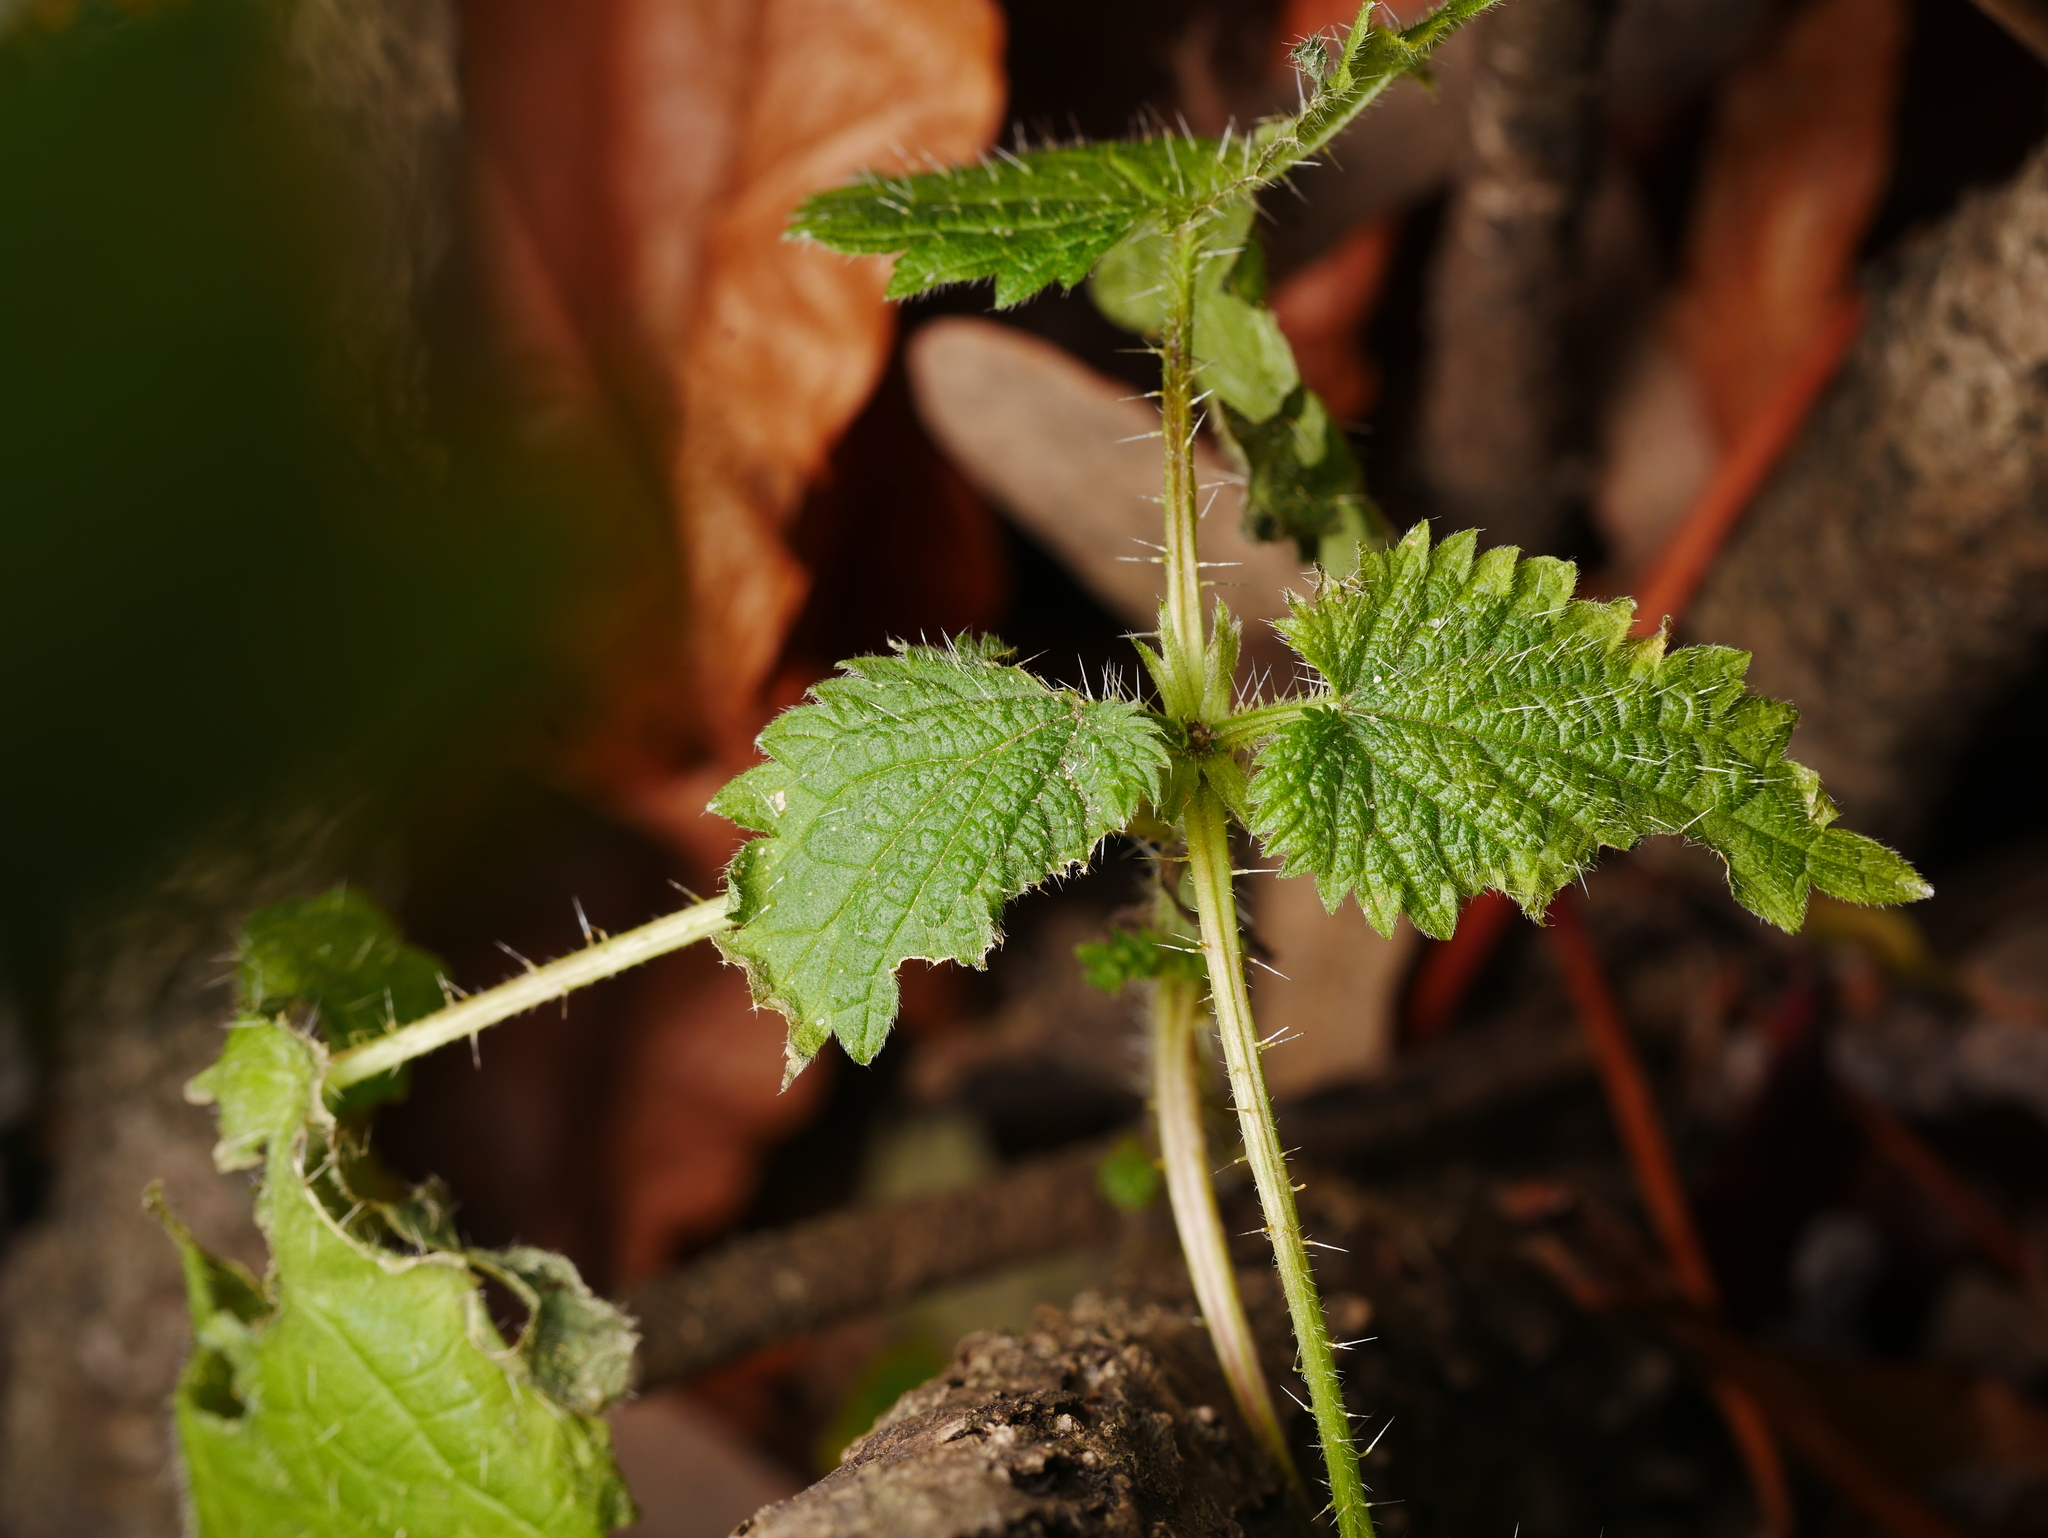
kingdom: Plantae
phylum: Tracheophyta
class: Magnoliopsida
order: Rosales
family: Urticaceae
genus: Urtica
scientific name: Urtica dioica
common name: Common nettle
